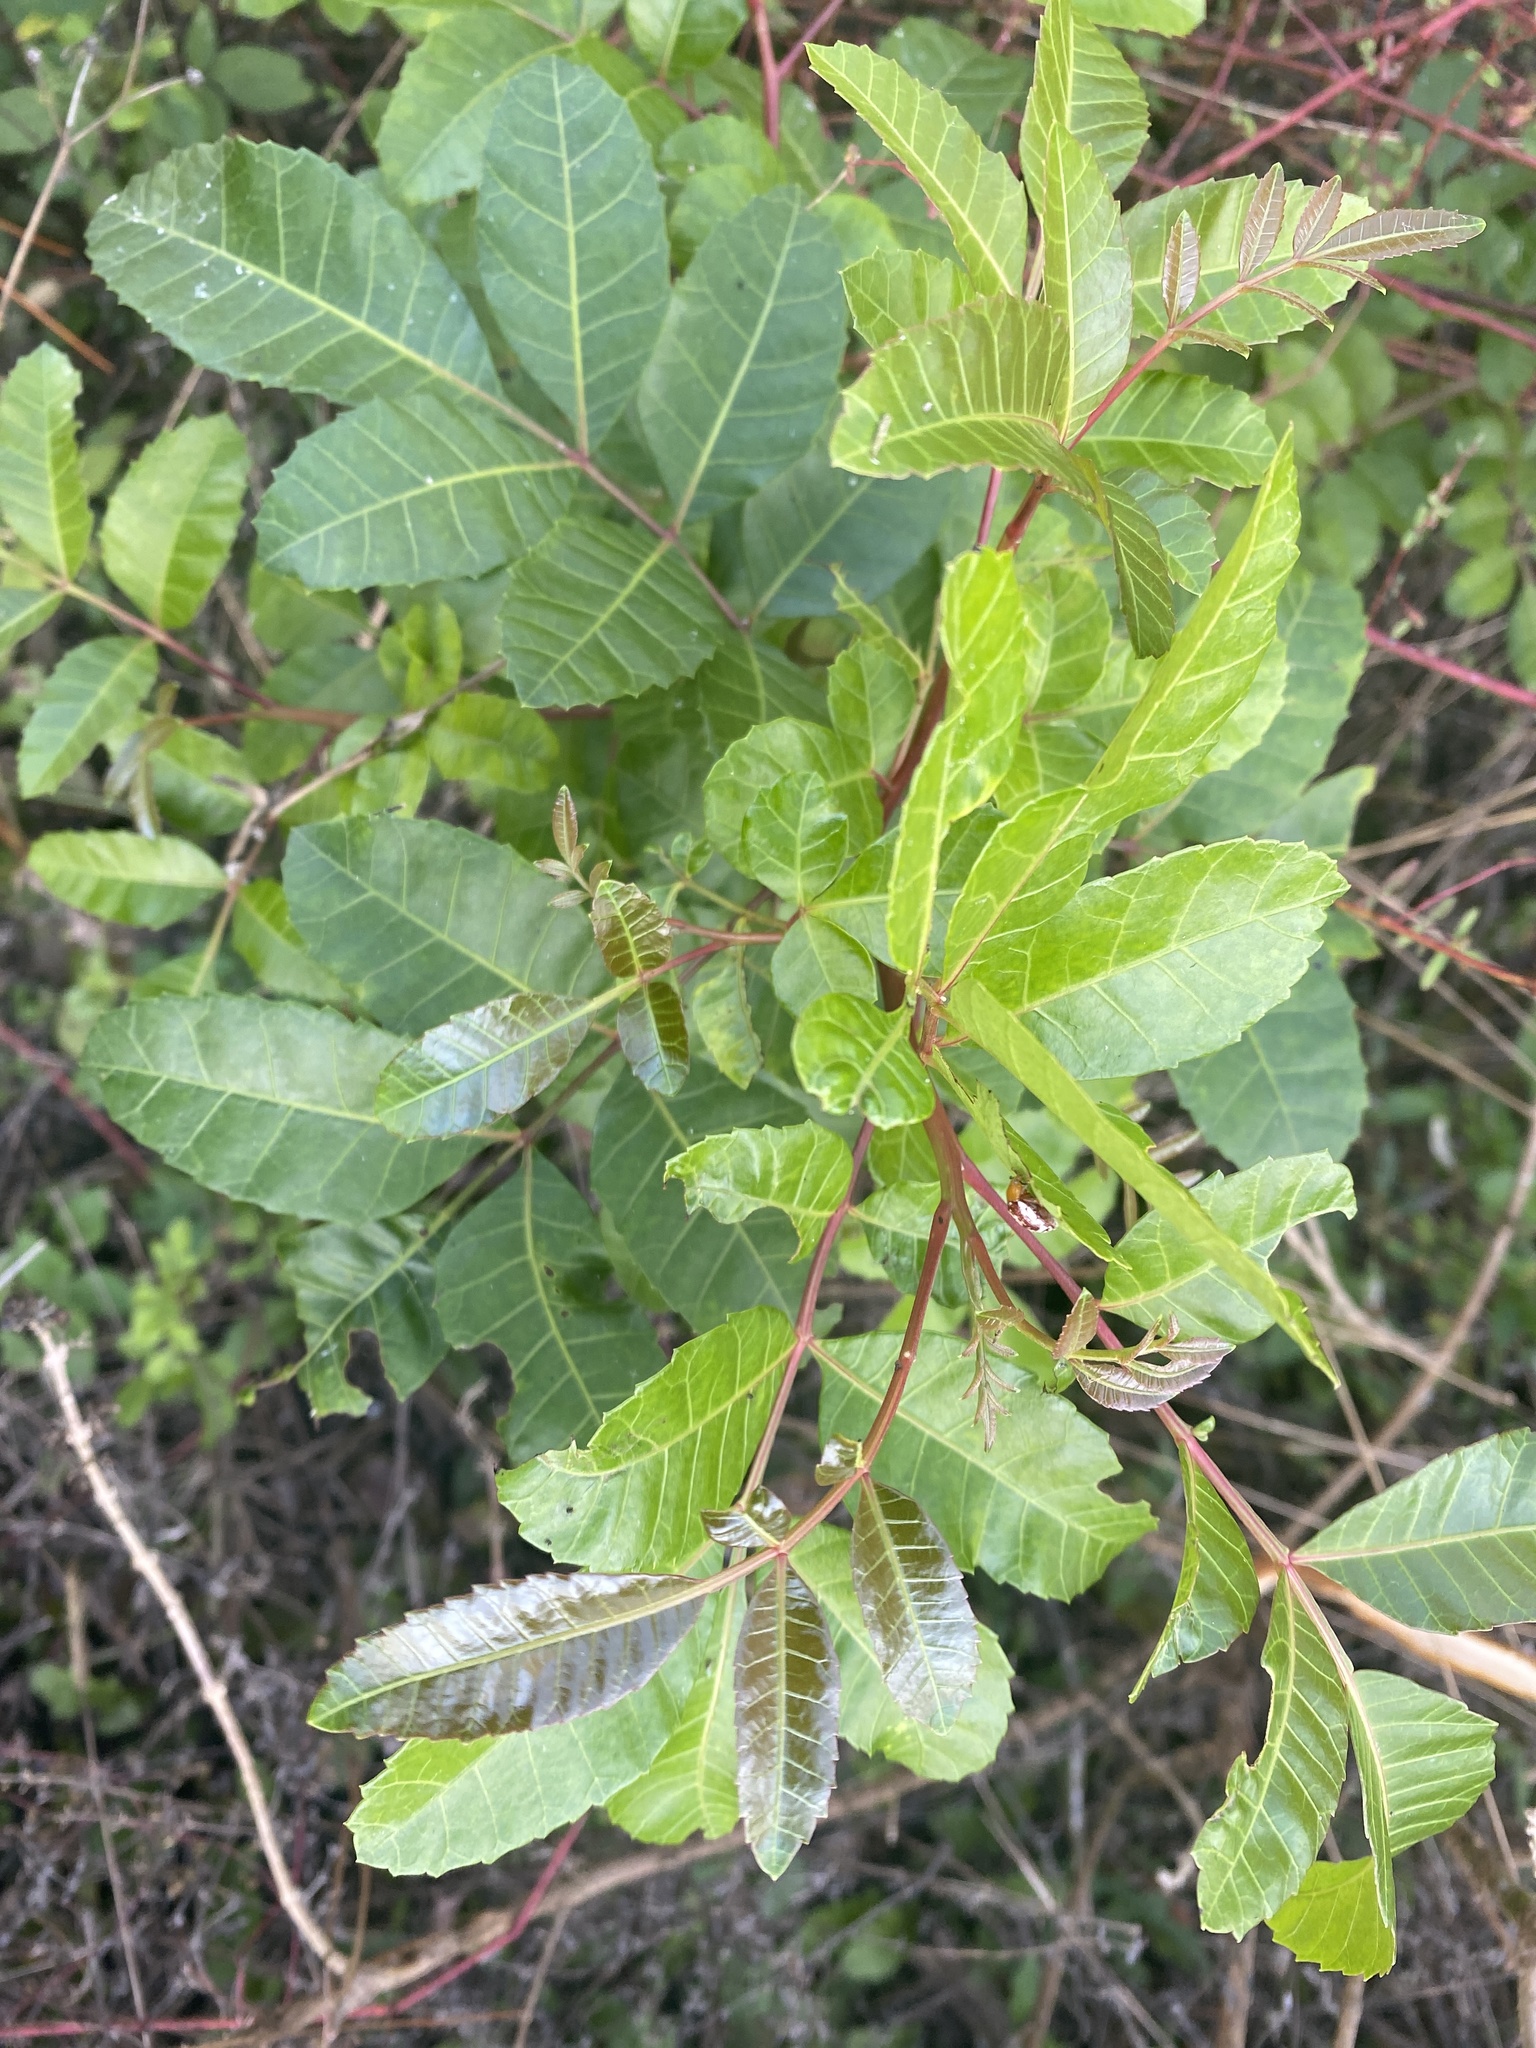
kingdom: Plantae
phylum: Tracheophyta
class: Magnoliopsida
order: Sapindales
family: Anacardiaceae
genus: Schinus
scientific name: Schinus terebinthifolia
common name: Brazilian peppertree
